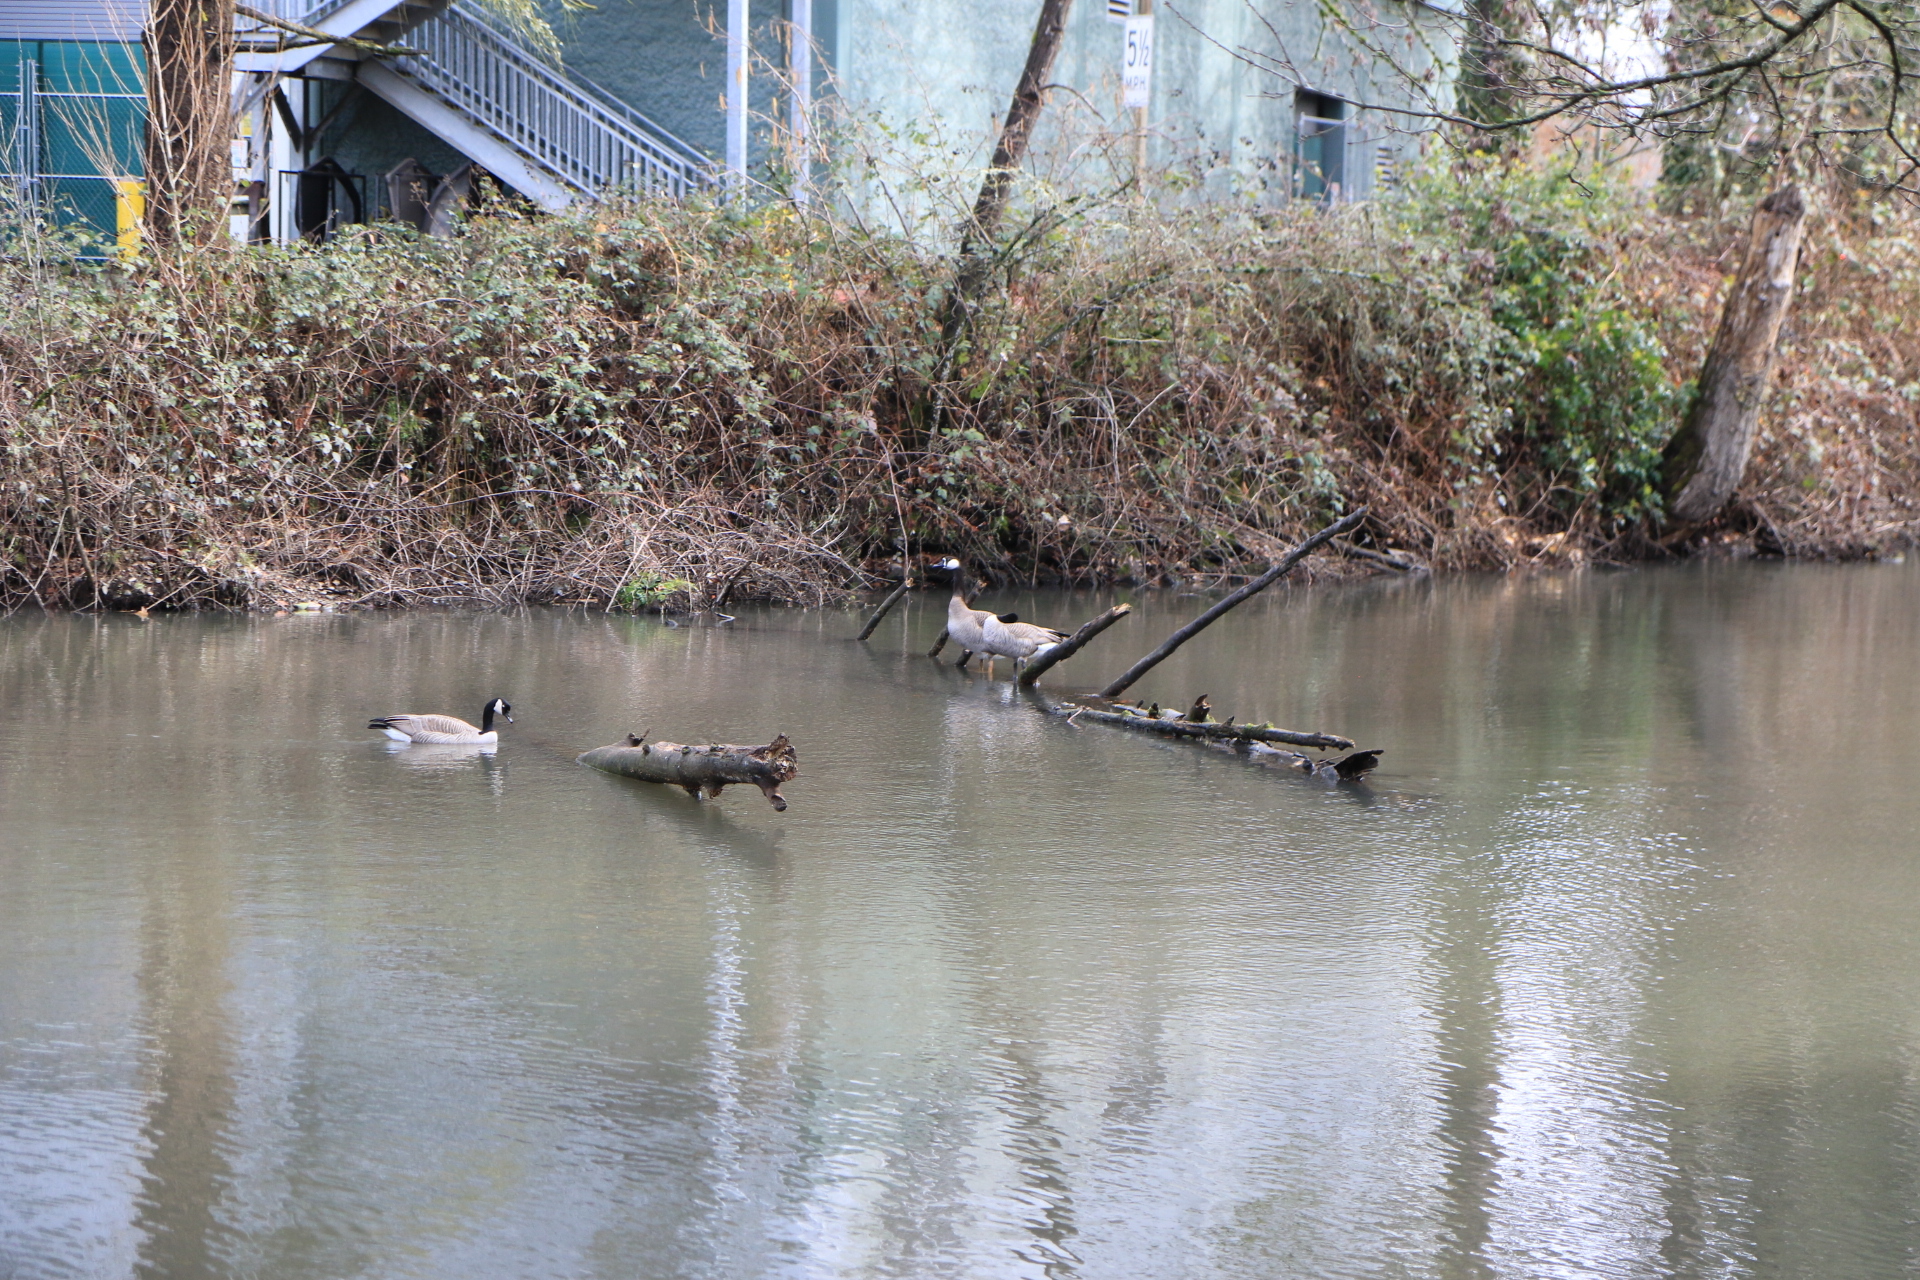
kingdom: Animalia
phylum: Chordata
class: Aves
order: Anseriformes
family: Anatidae
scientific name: Anatidae
